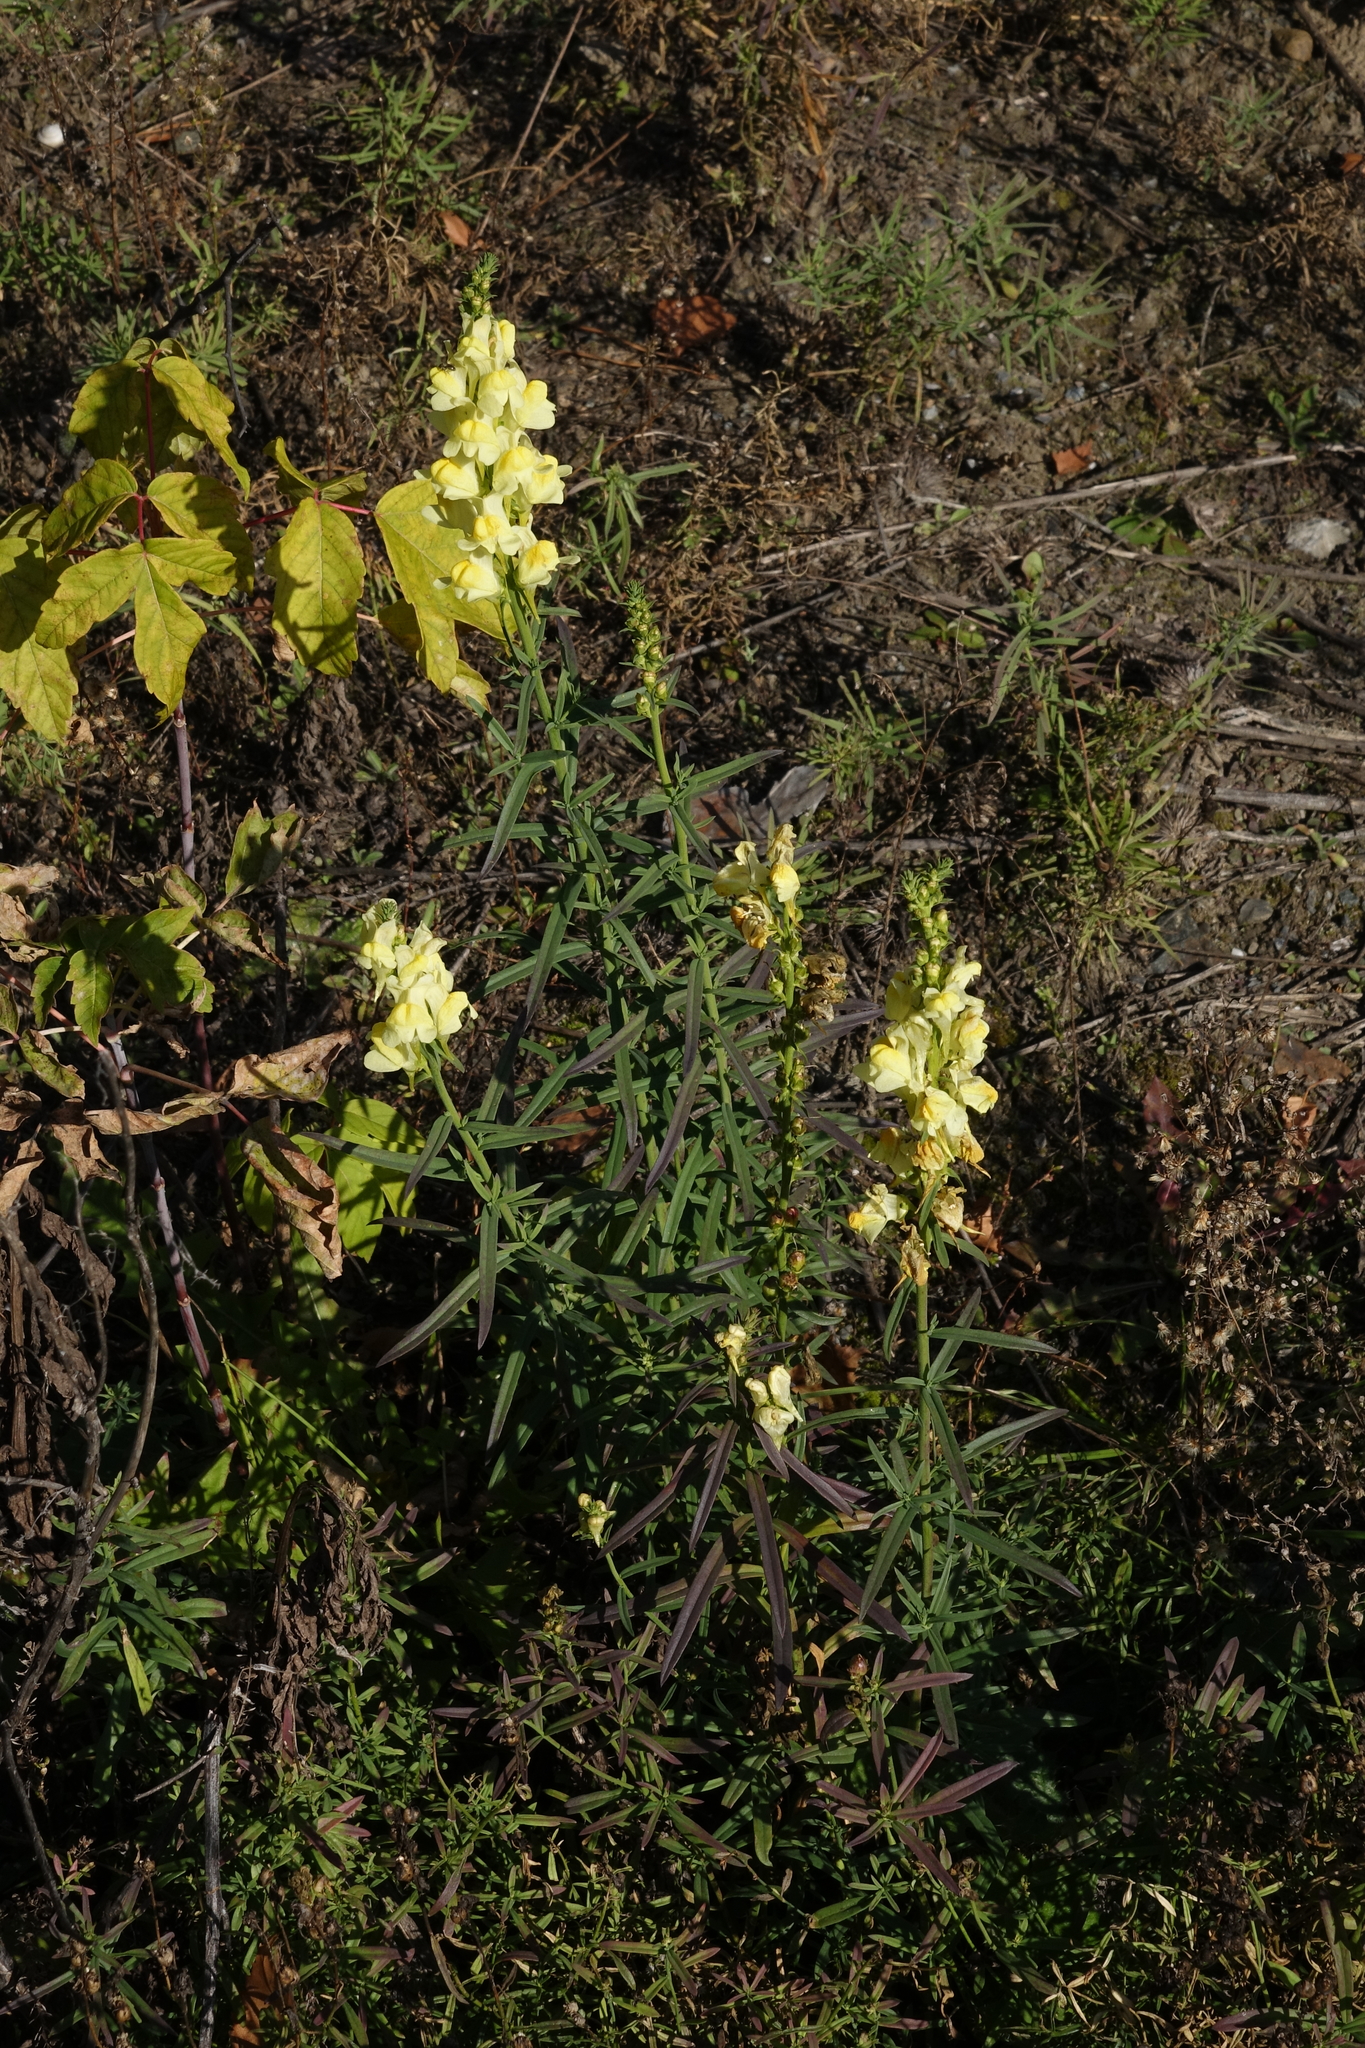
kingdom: Plantae
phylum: Tracheophyta
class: Magnoliopsida
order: Lamiales
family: Plantaginaceae
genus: Linaria
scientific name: Linaria vulgaris
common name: Butter and eggs
